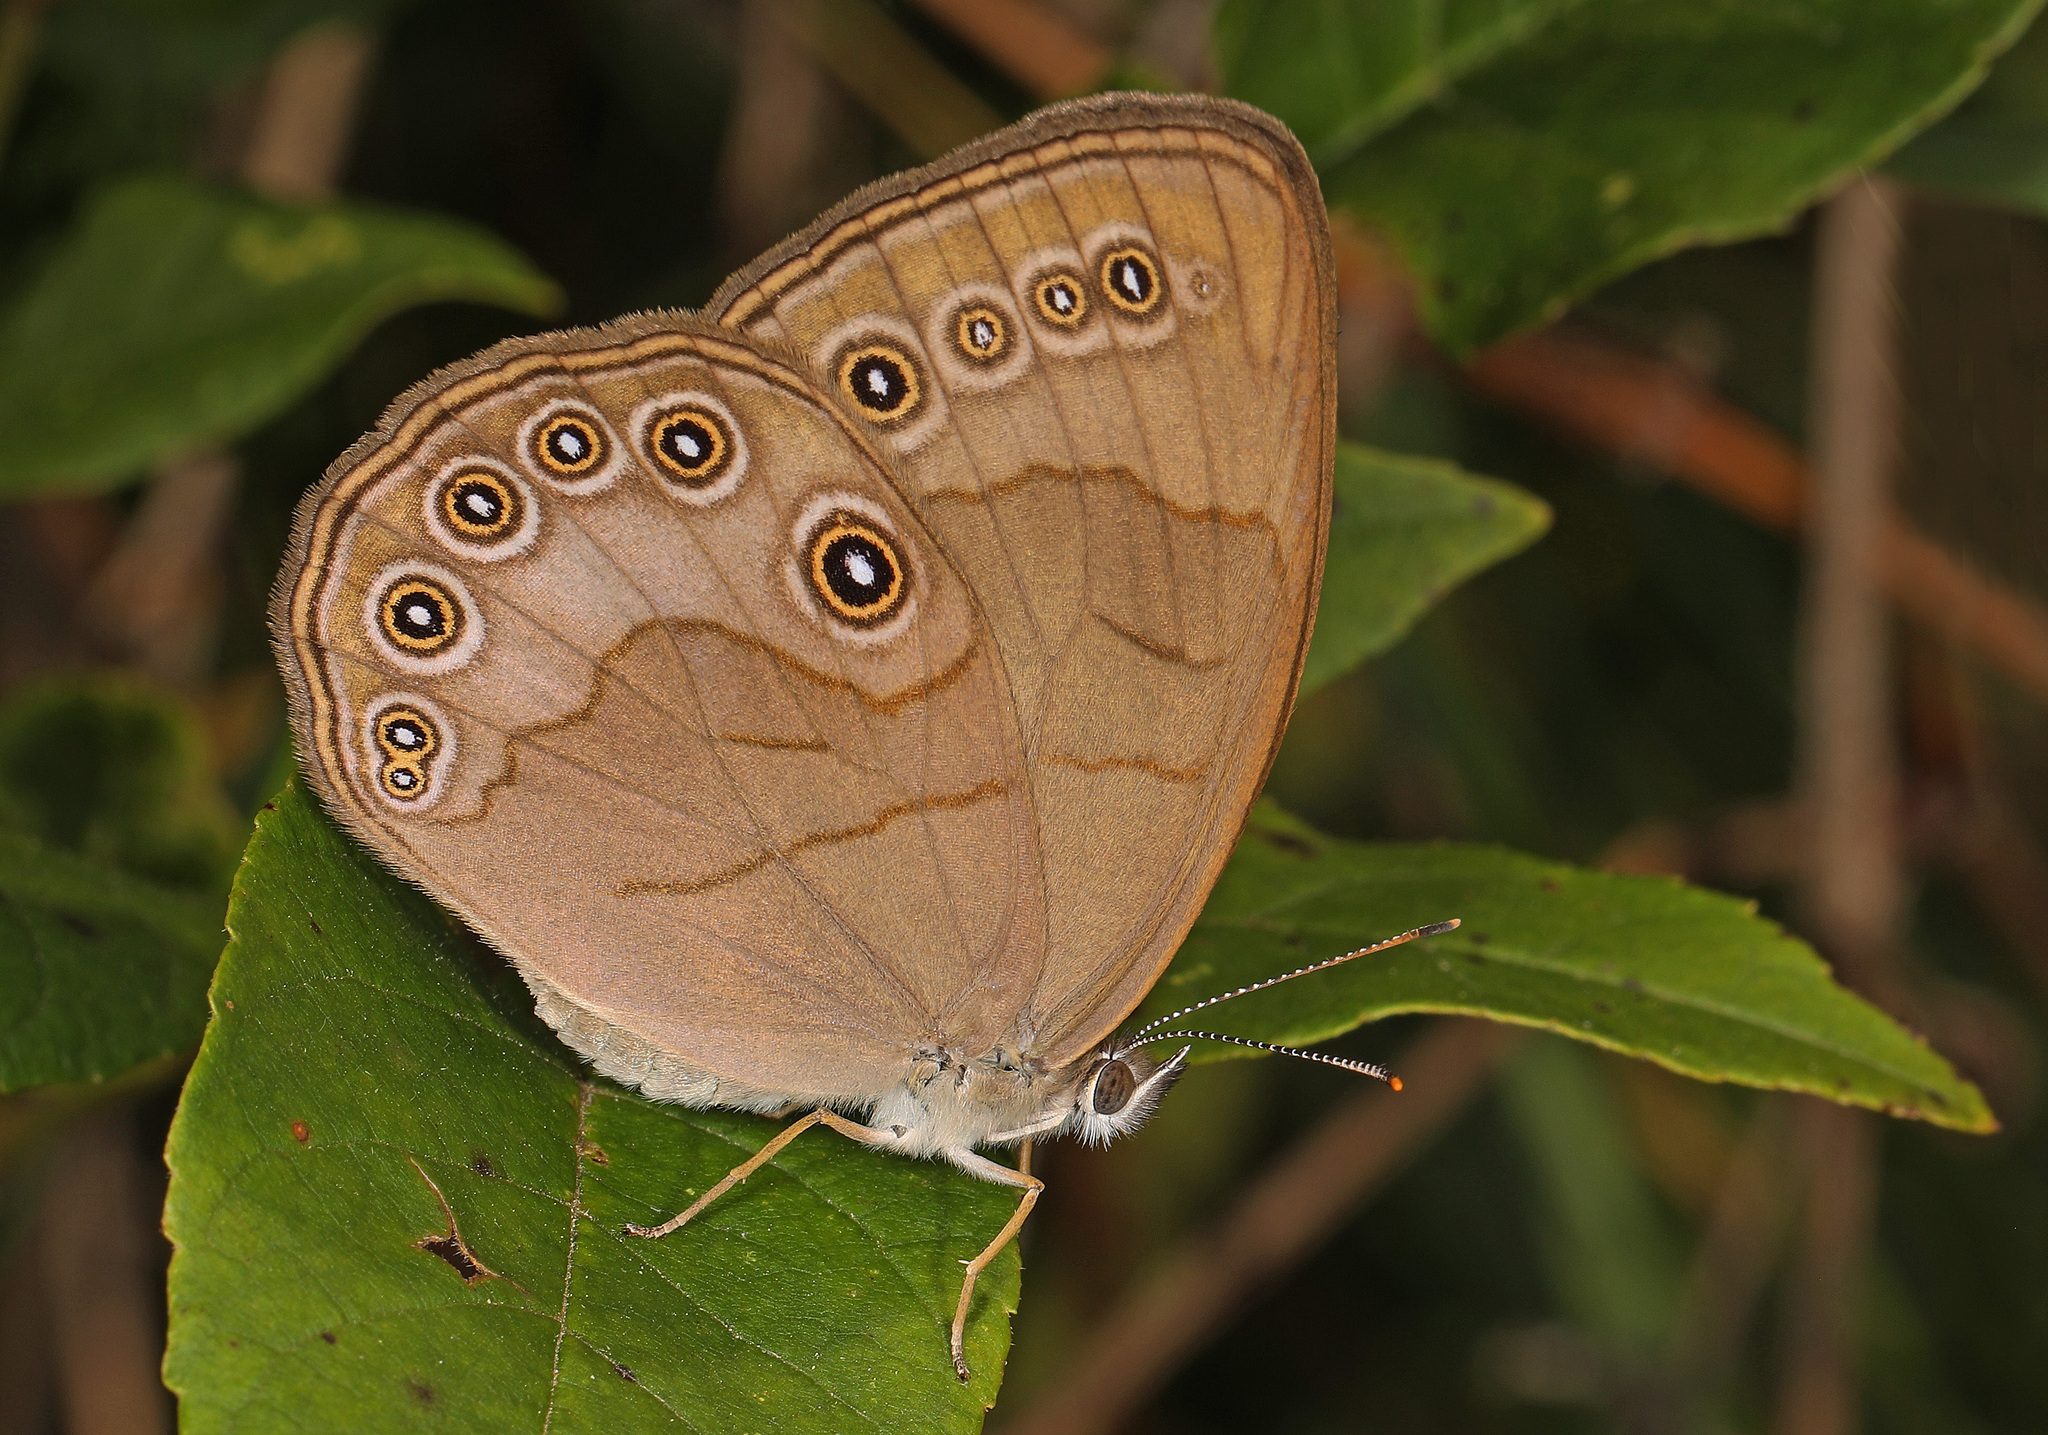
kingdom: Animalia
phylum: Arthropoda
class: Insecta
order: Lepidoptera
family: Nymphalidae
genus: Lethe
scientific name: Lethe eurydice
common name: Eyed brown
